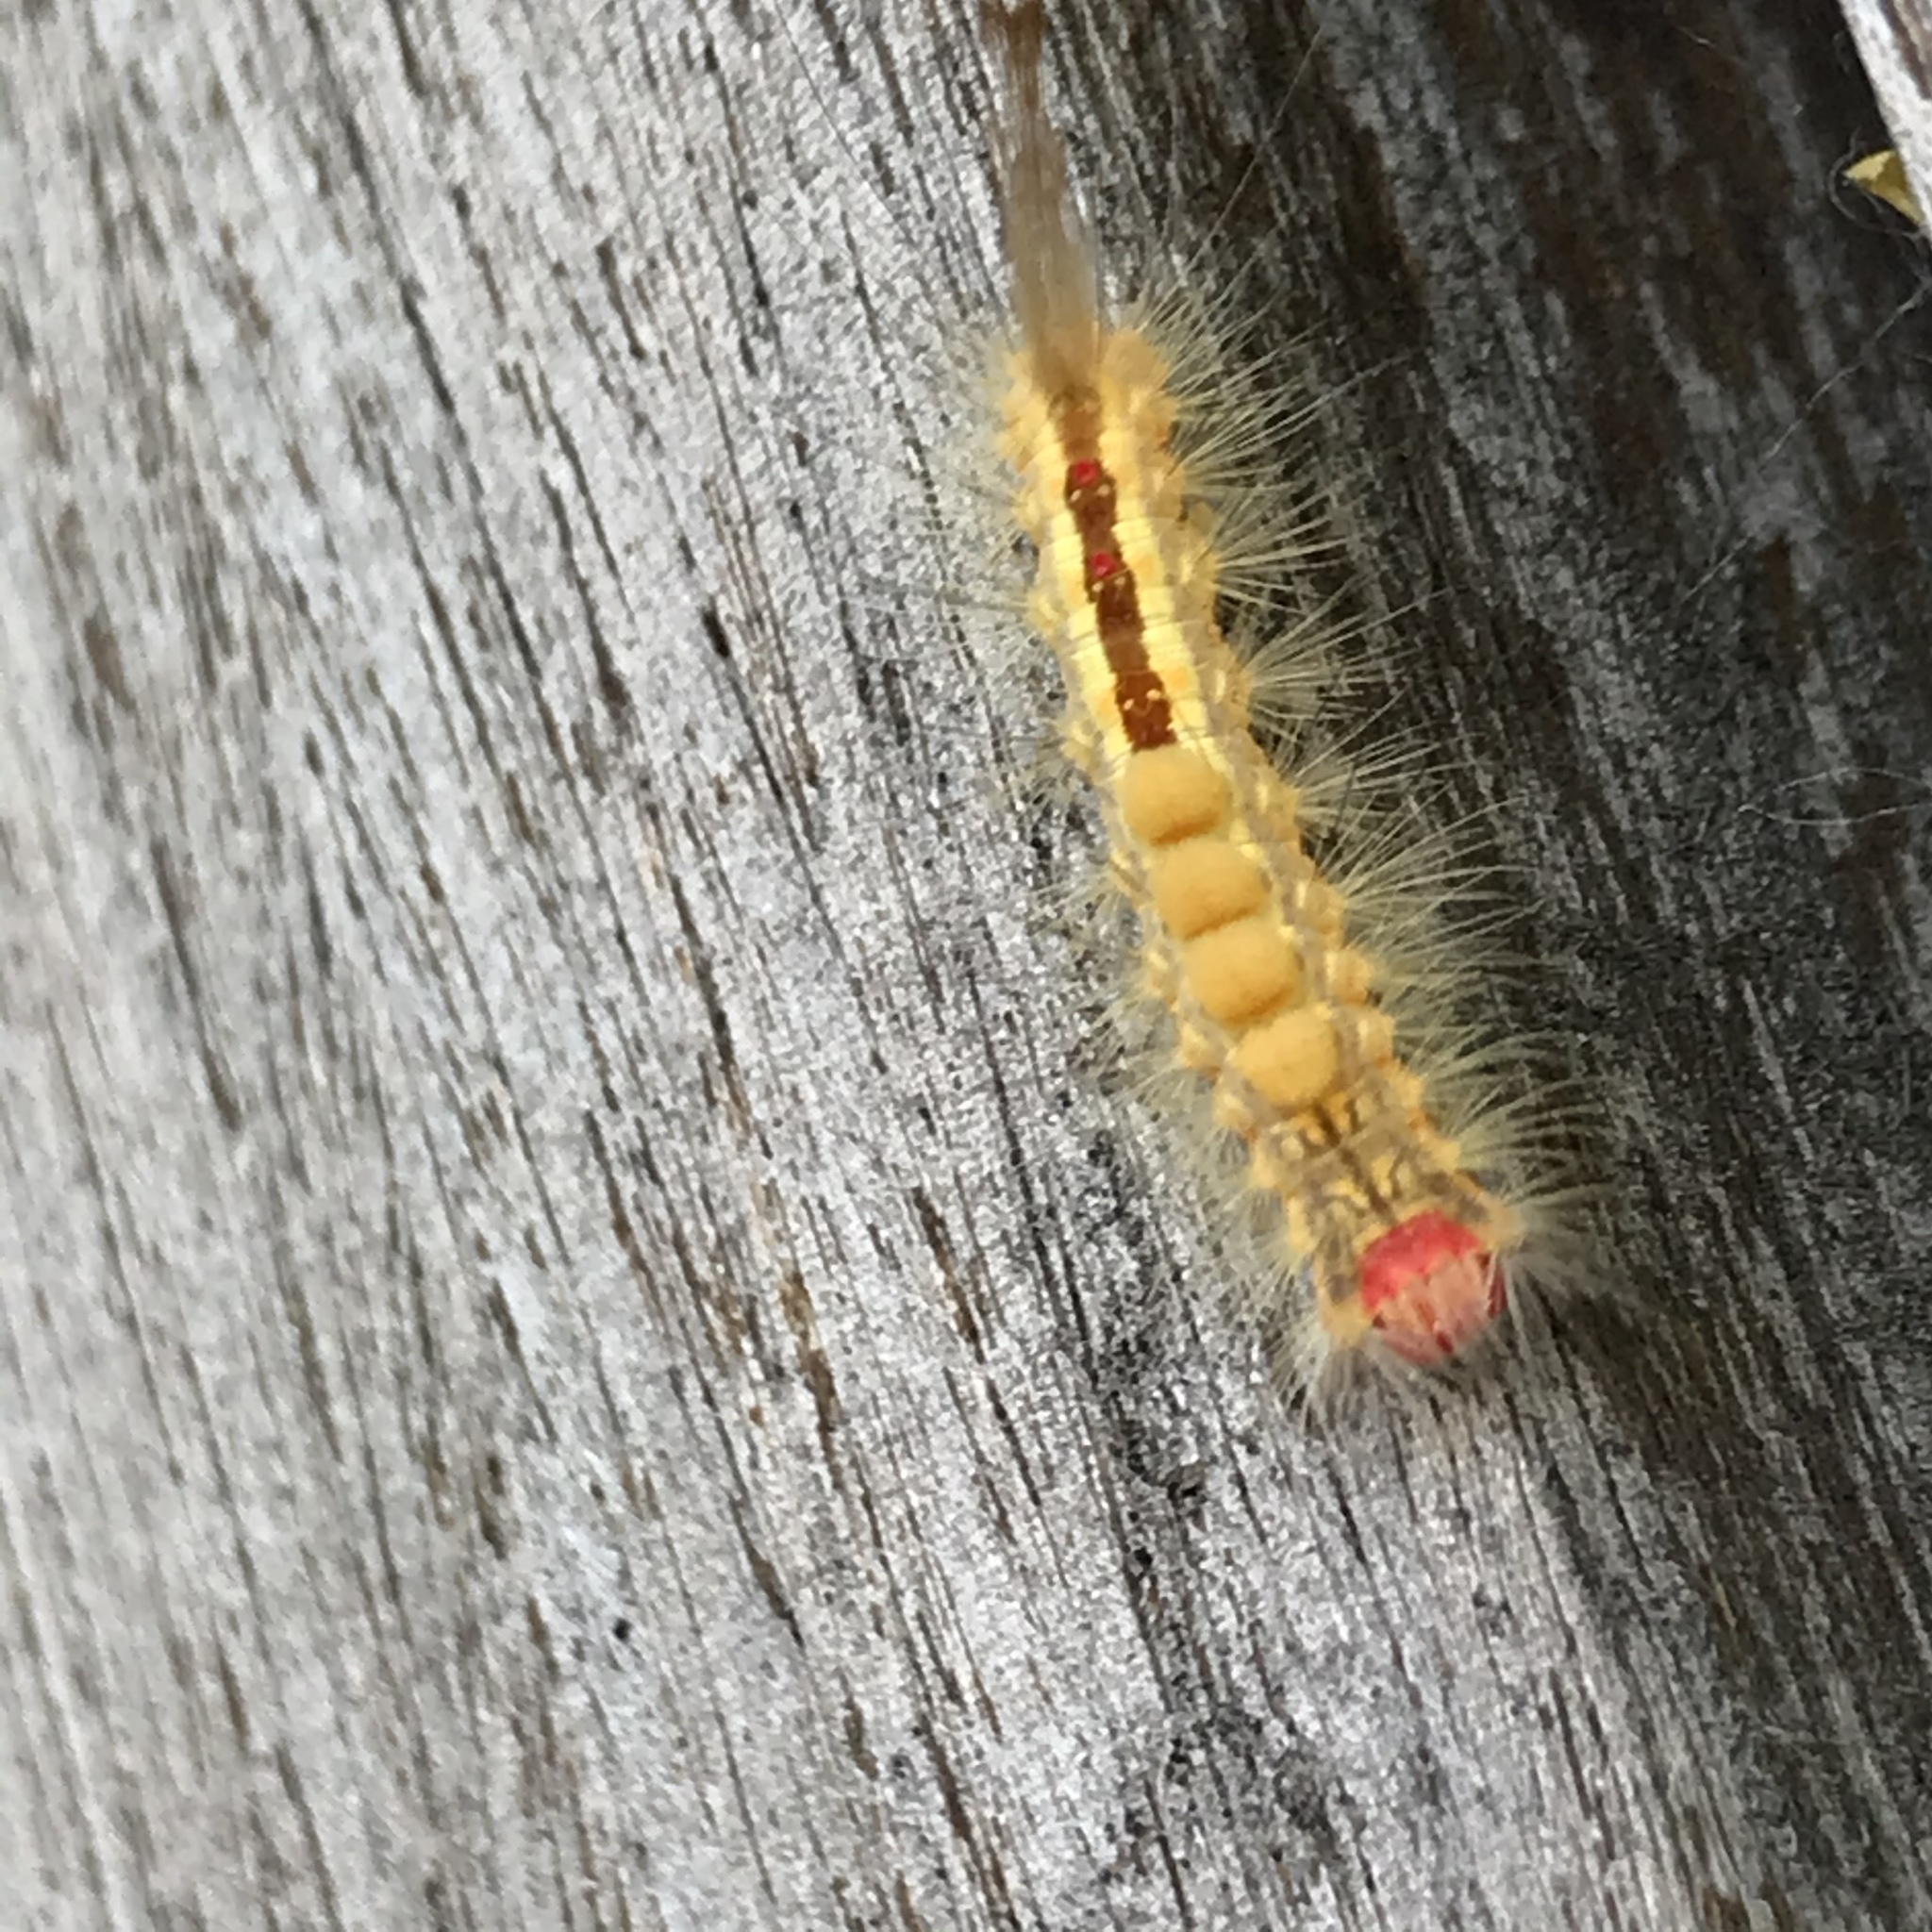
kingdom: Animalia
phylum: Arthropoda
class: Insecta
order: Lepidoptera
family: Erebidae
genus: Orgyia
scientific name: Orgyia leucostigma
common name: White-marked tussock moth
